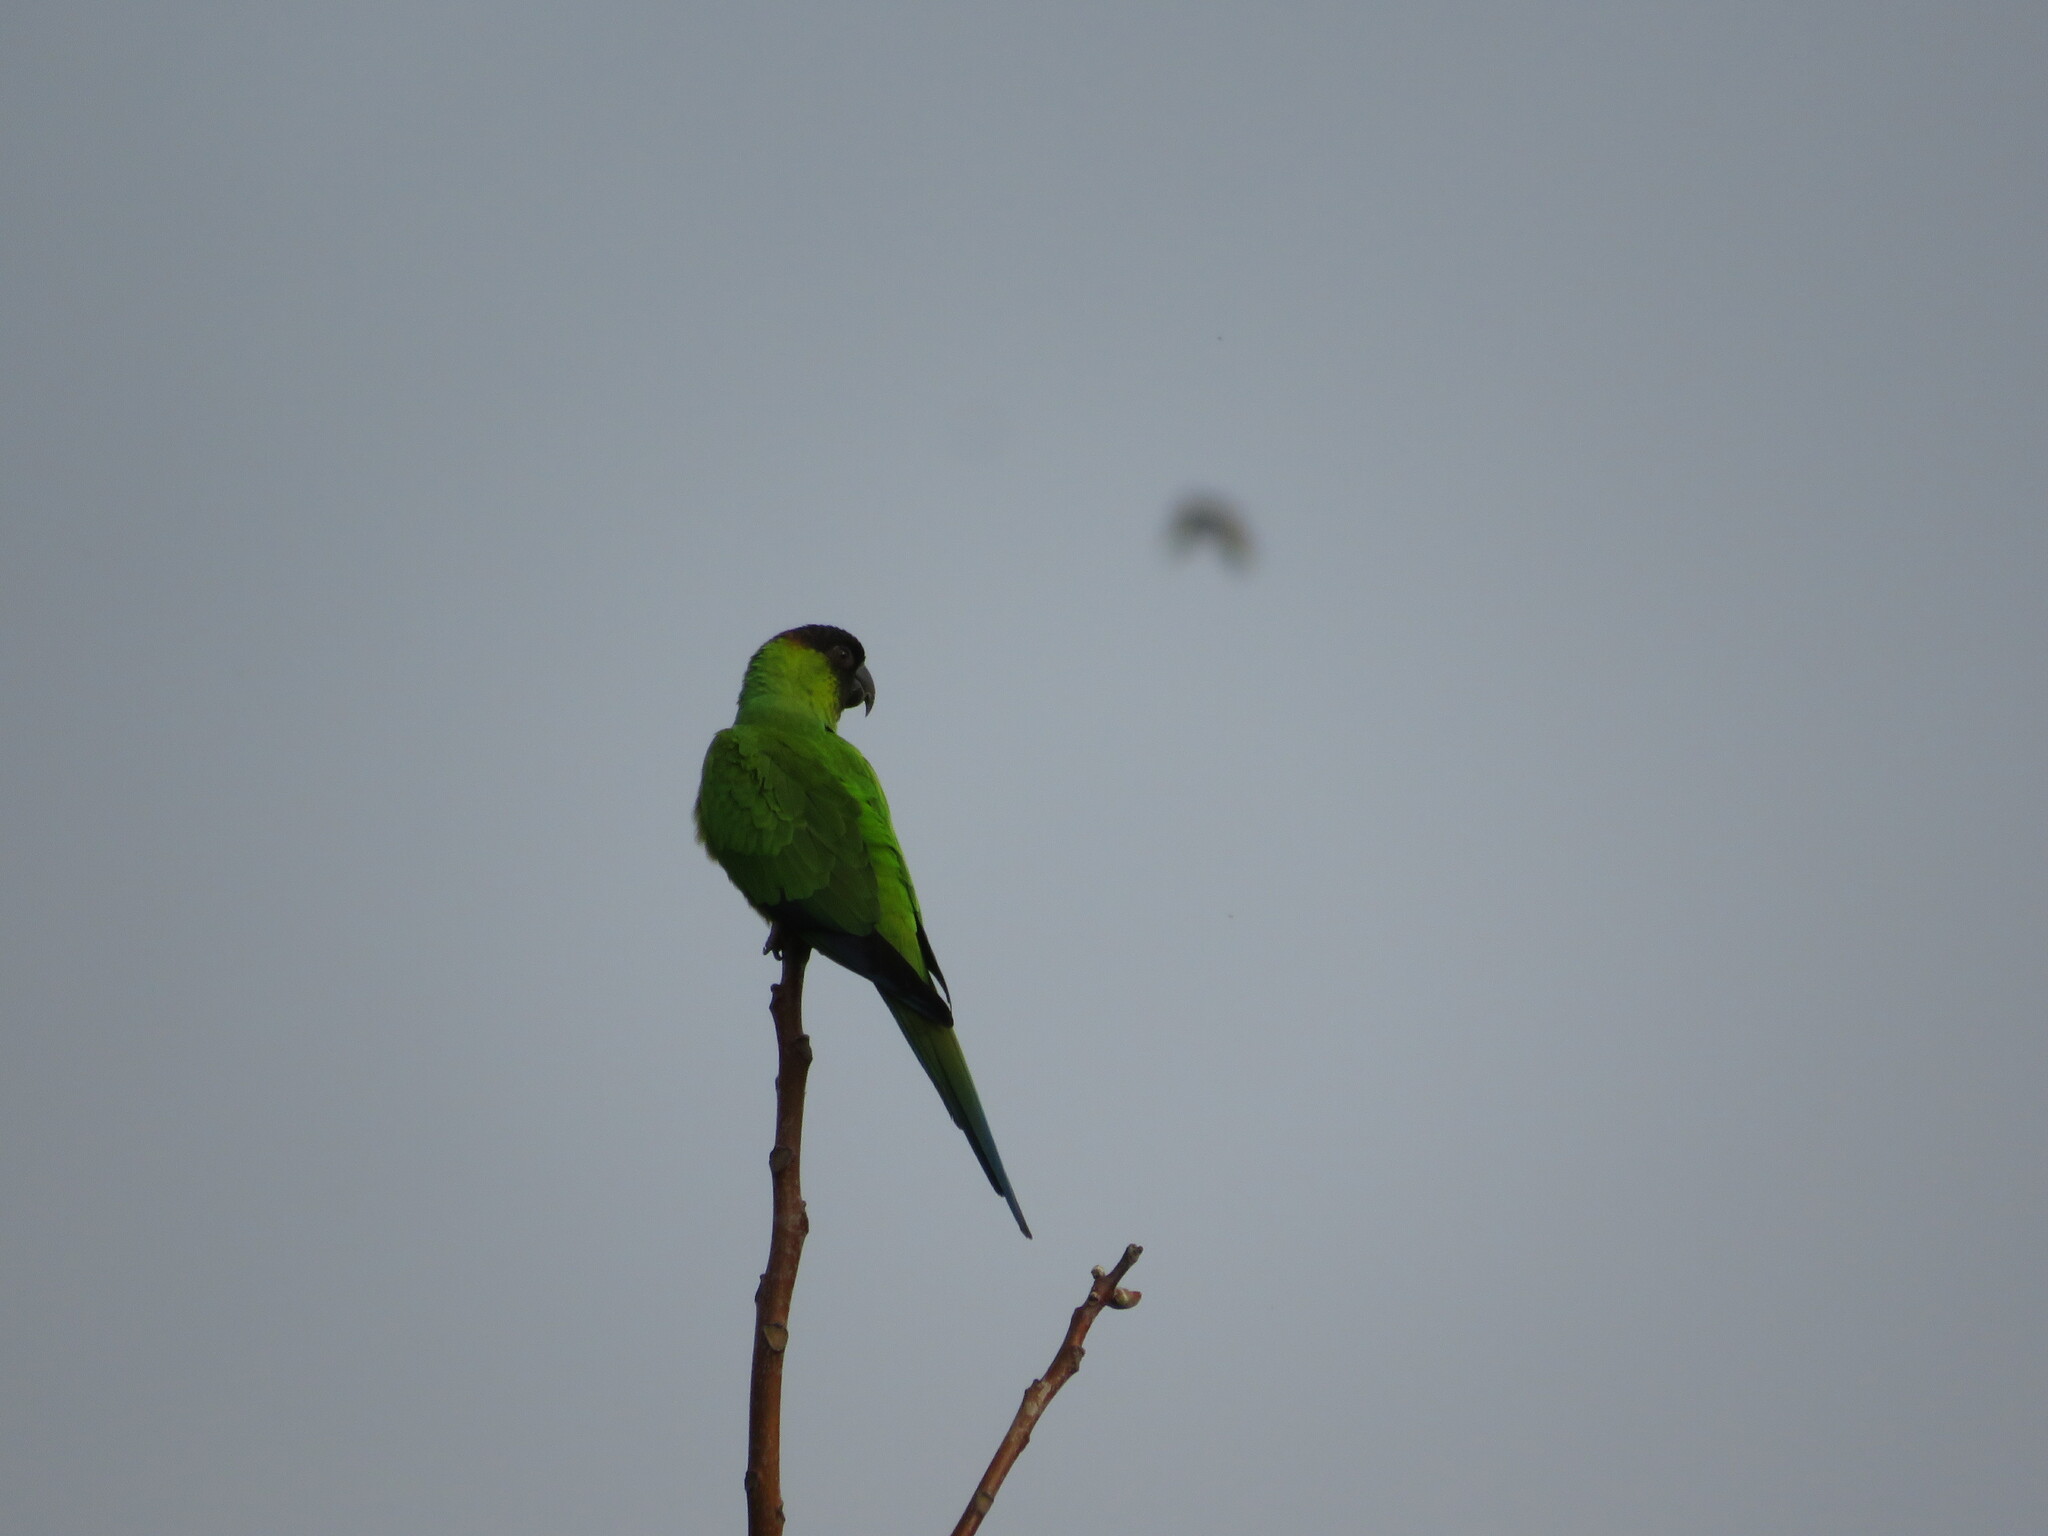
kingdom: Animalia
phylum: Chordata
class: Aves
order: Psittaciformes
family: Psittacidae
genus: Nandayus
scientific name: Nandayus nenday
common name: Nanday parakeet
